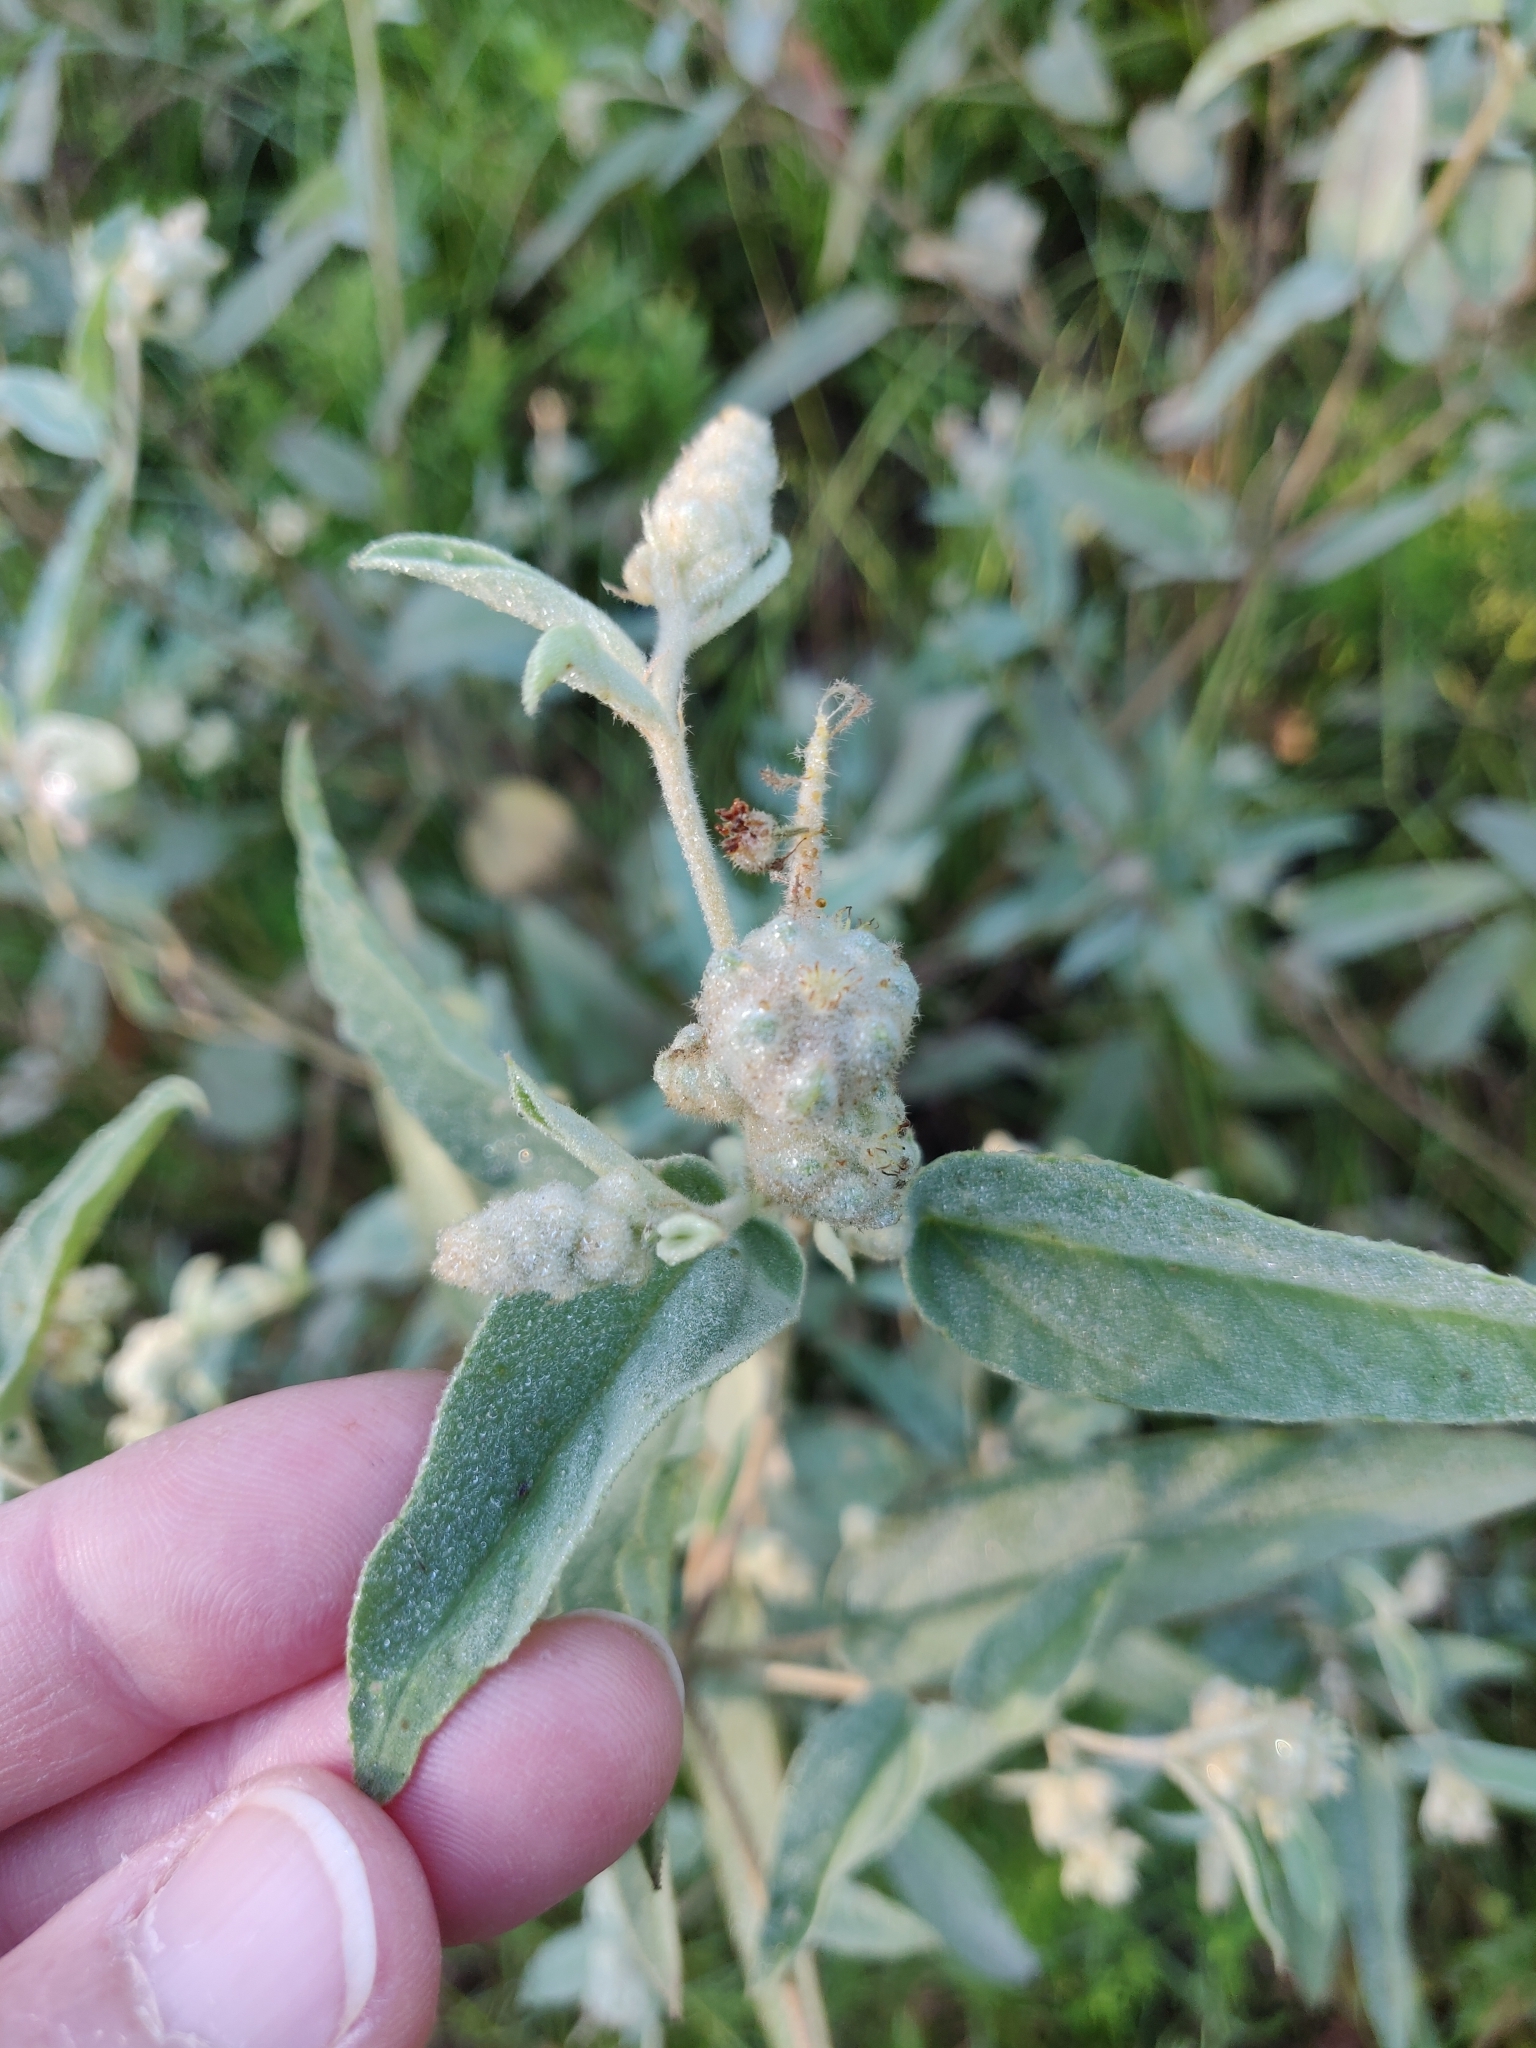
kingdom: Plantae
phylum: Tracheophyta
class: Magnoliopsida
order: Malpighiales
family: Euphorbiaceae
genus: Croton
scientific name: Croton lindheimeri
